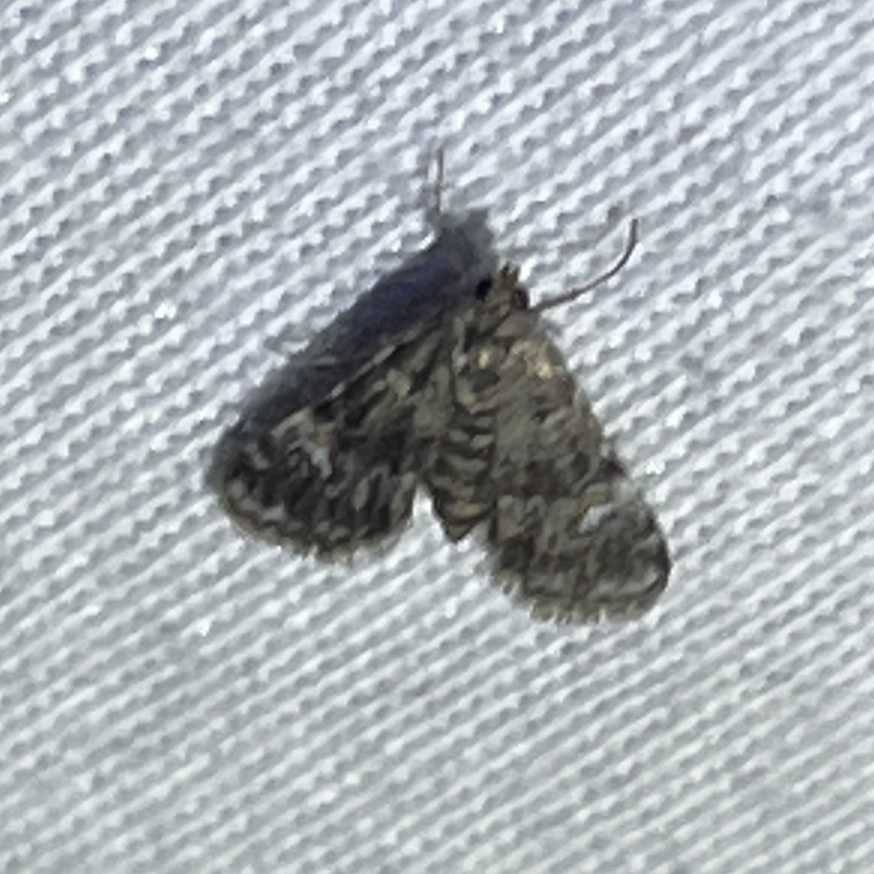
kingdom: Animalia
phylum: Arthropoda
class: Insecta
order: Lepidoptera
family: Crambidae
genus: Elophila
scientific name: Elophila obliteralis
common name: Waterlily leafcutter moth
